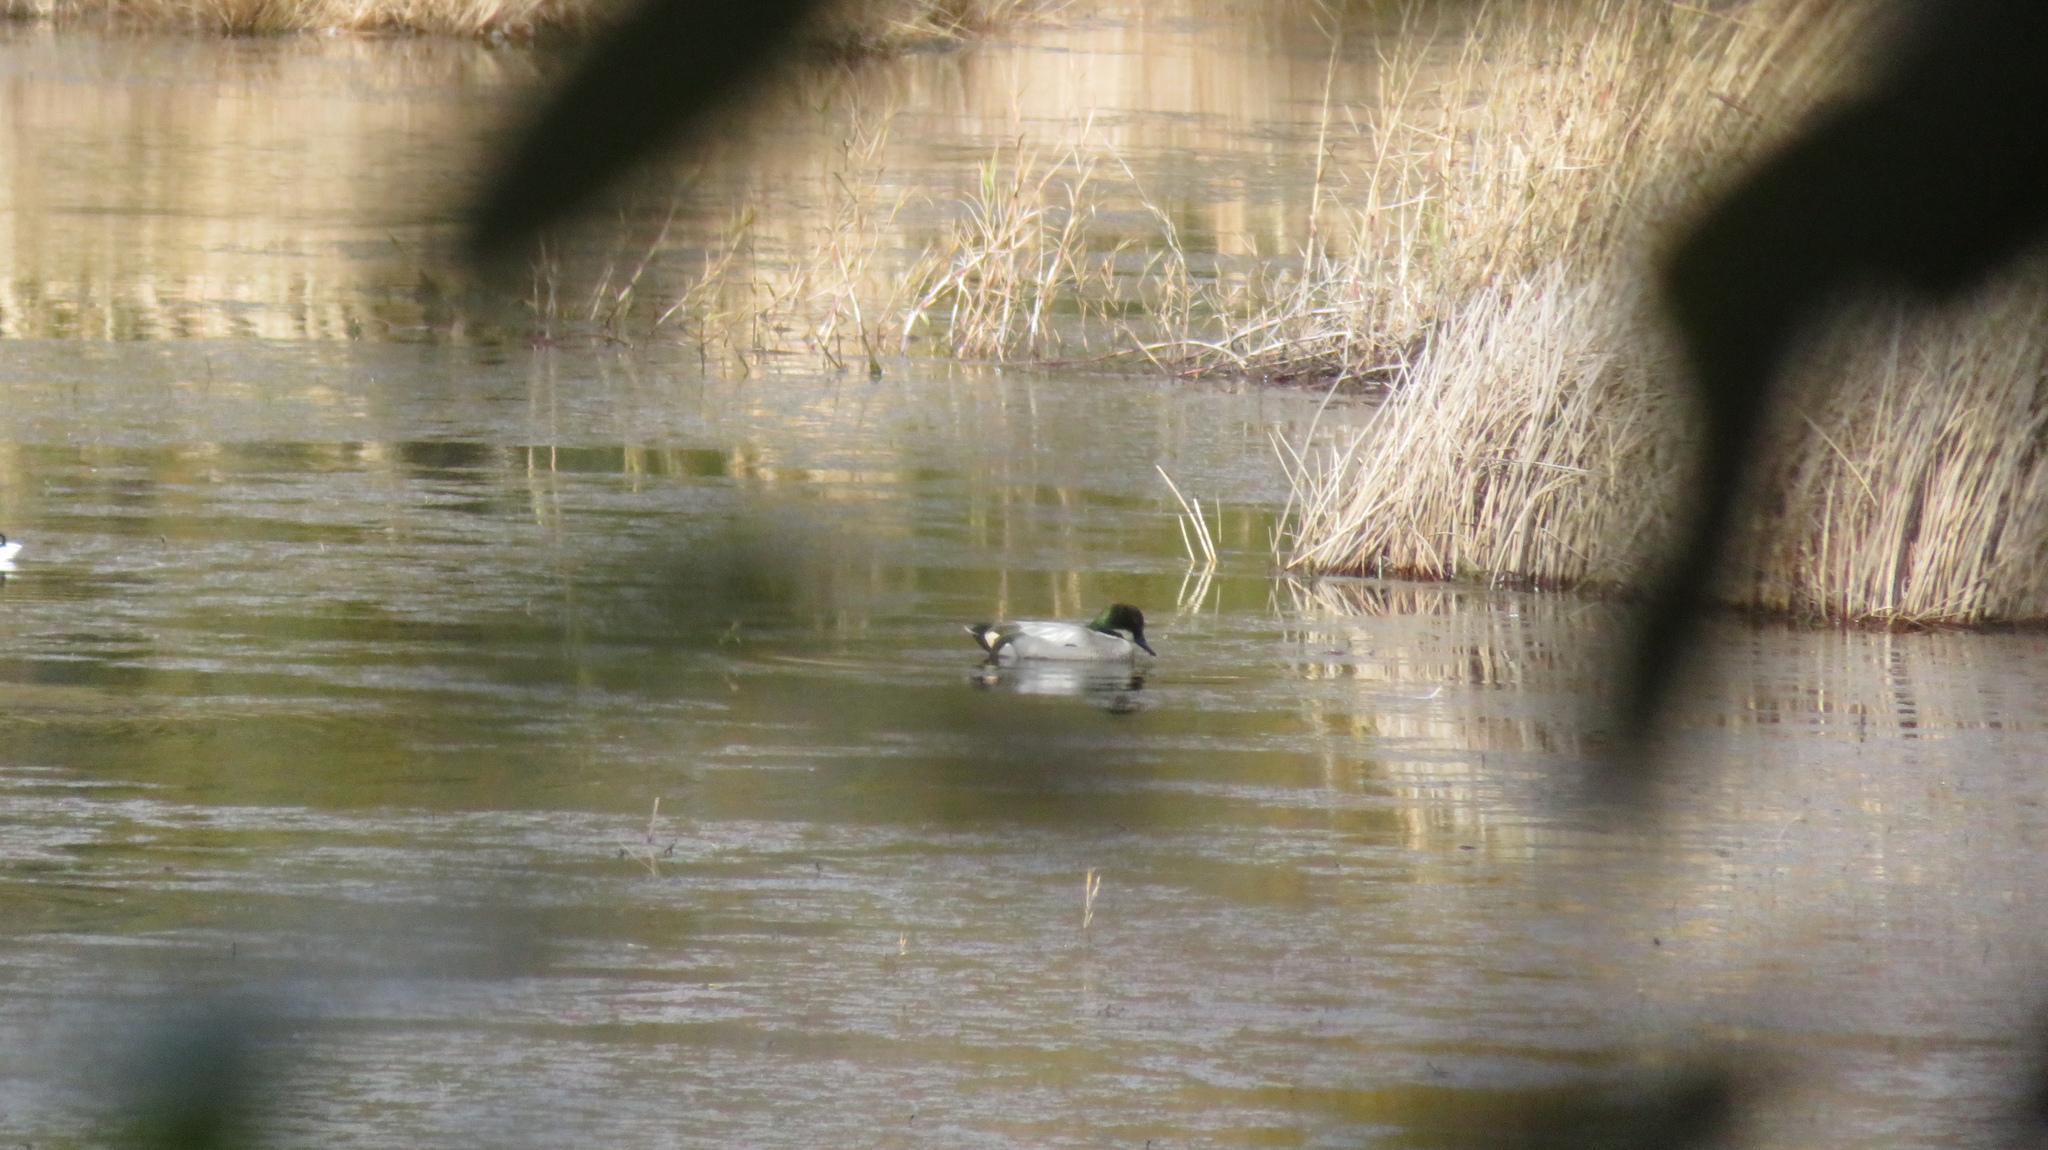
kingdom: Animalia
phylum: Chordata
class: Aves
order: Anseriformes
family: Anatidae
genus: Mareca
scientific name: Mareca falcata
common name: Falcated duck
